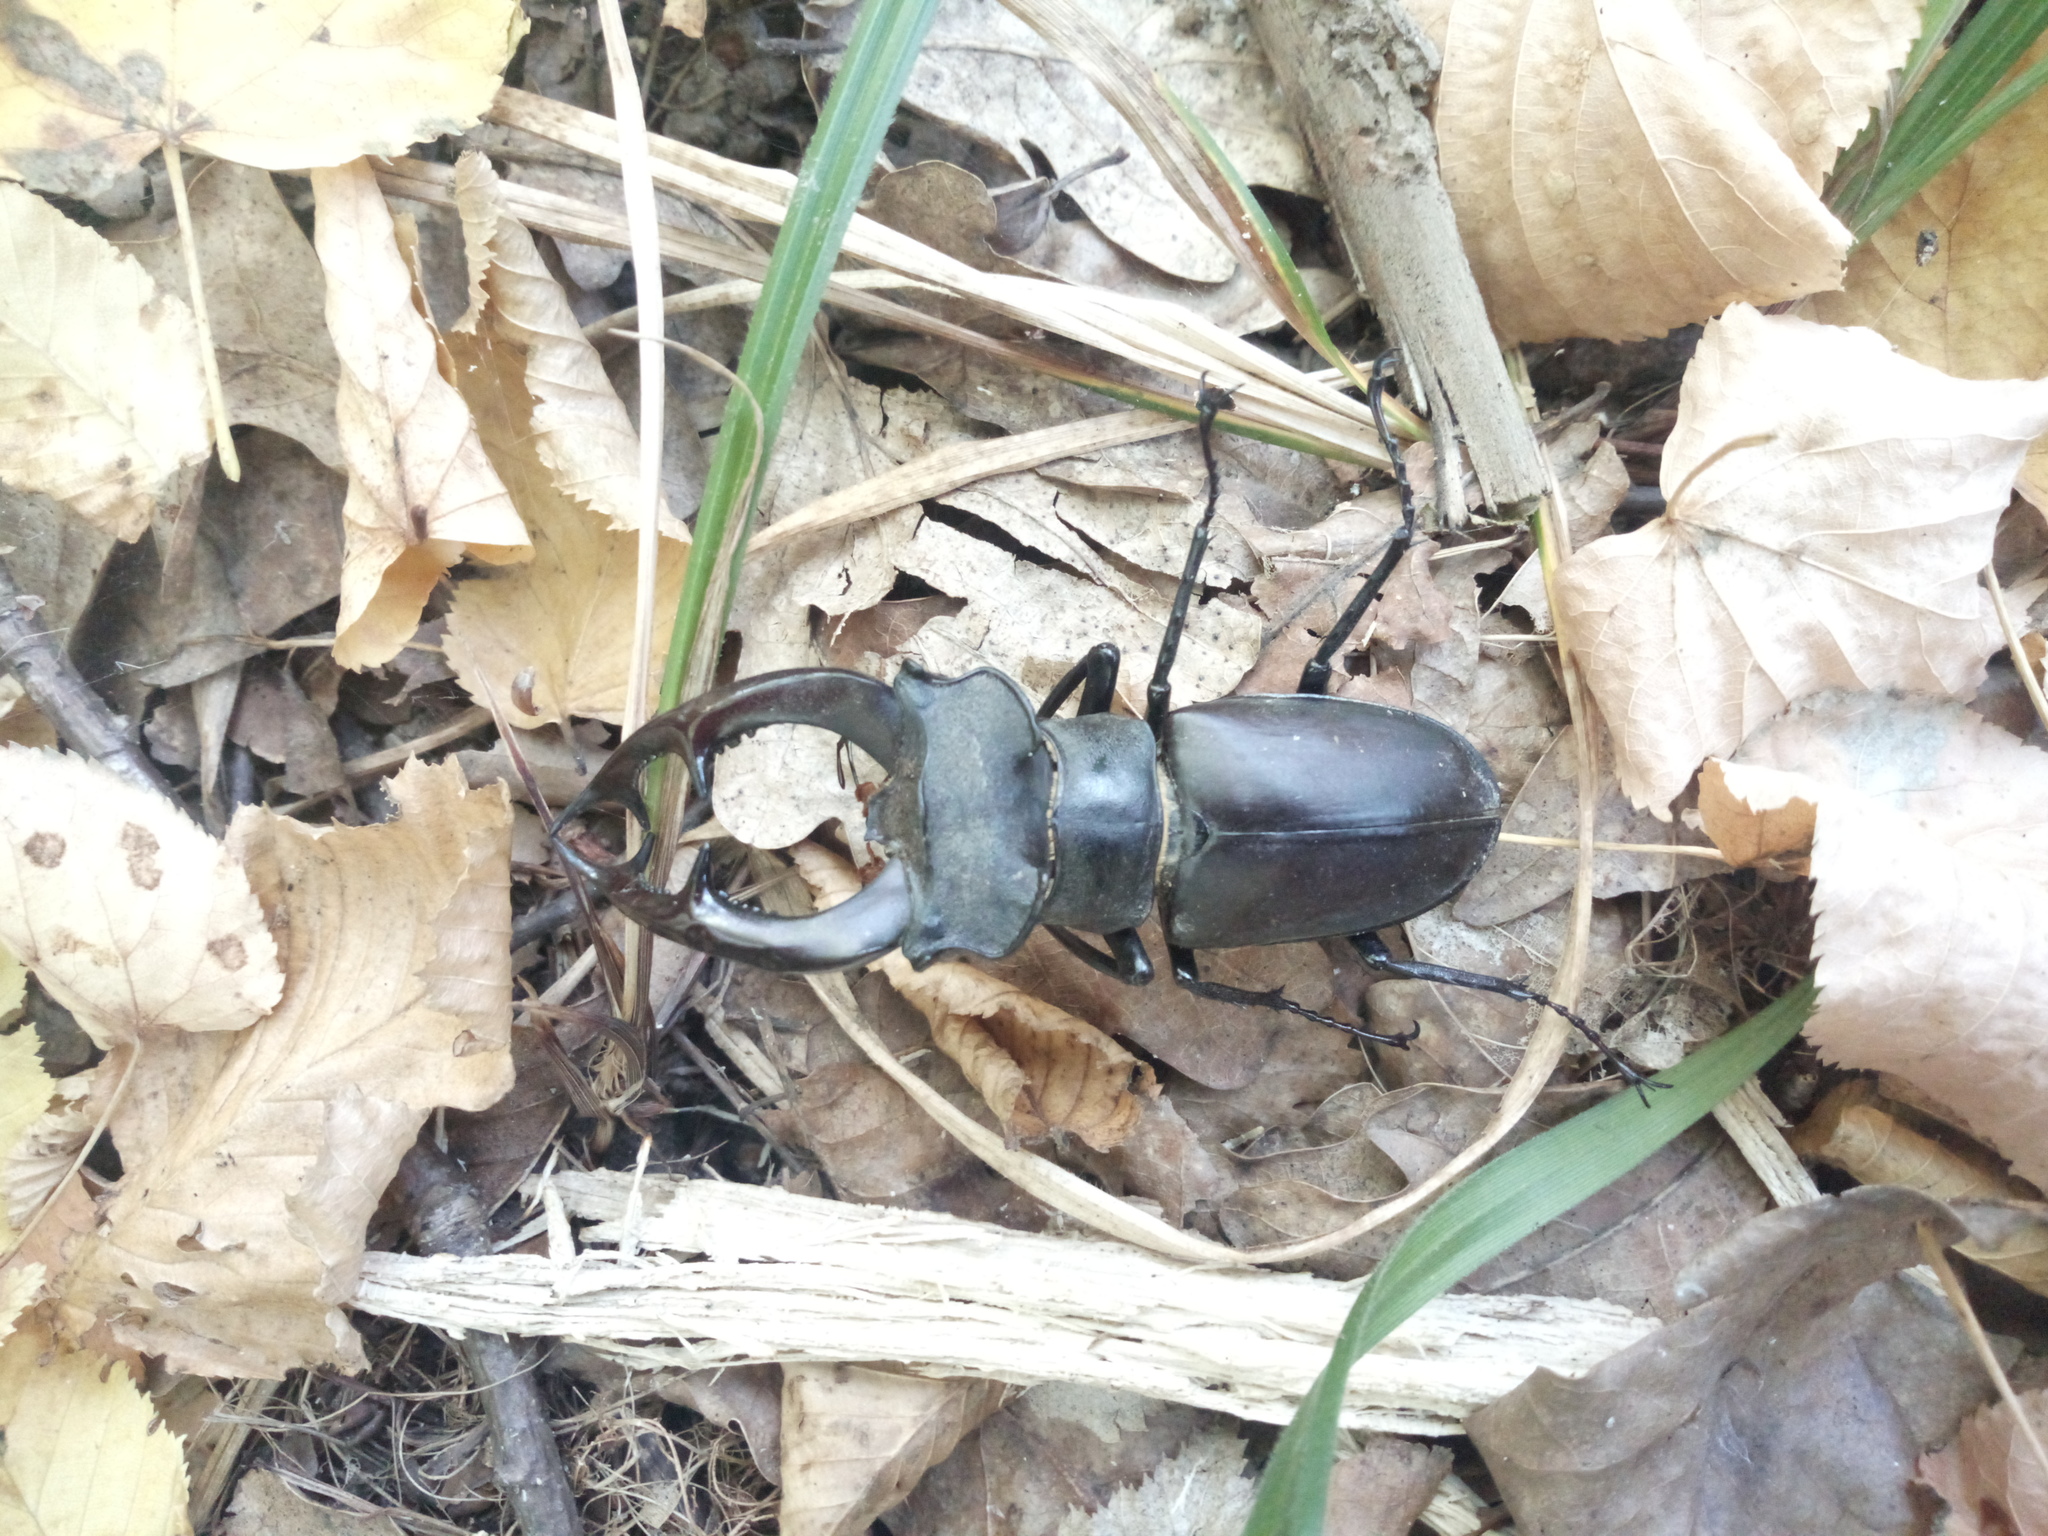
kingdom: Animalia
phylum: Arthropoda
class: Insecta
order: Coleoptera
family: Lucanidae
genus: Lucanus
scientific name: Lucanus cervus
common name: Stag beetle
